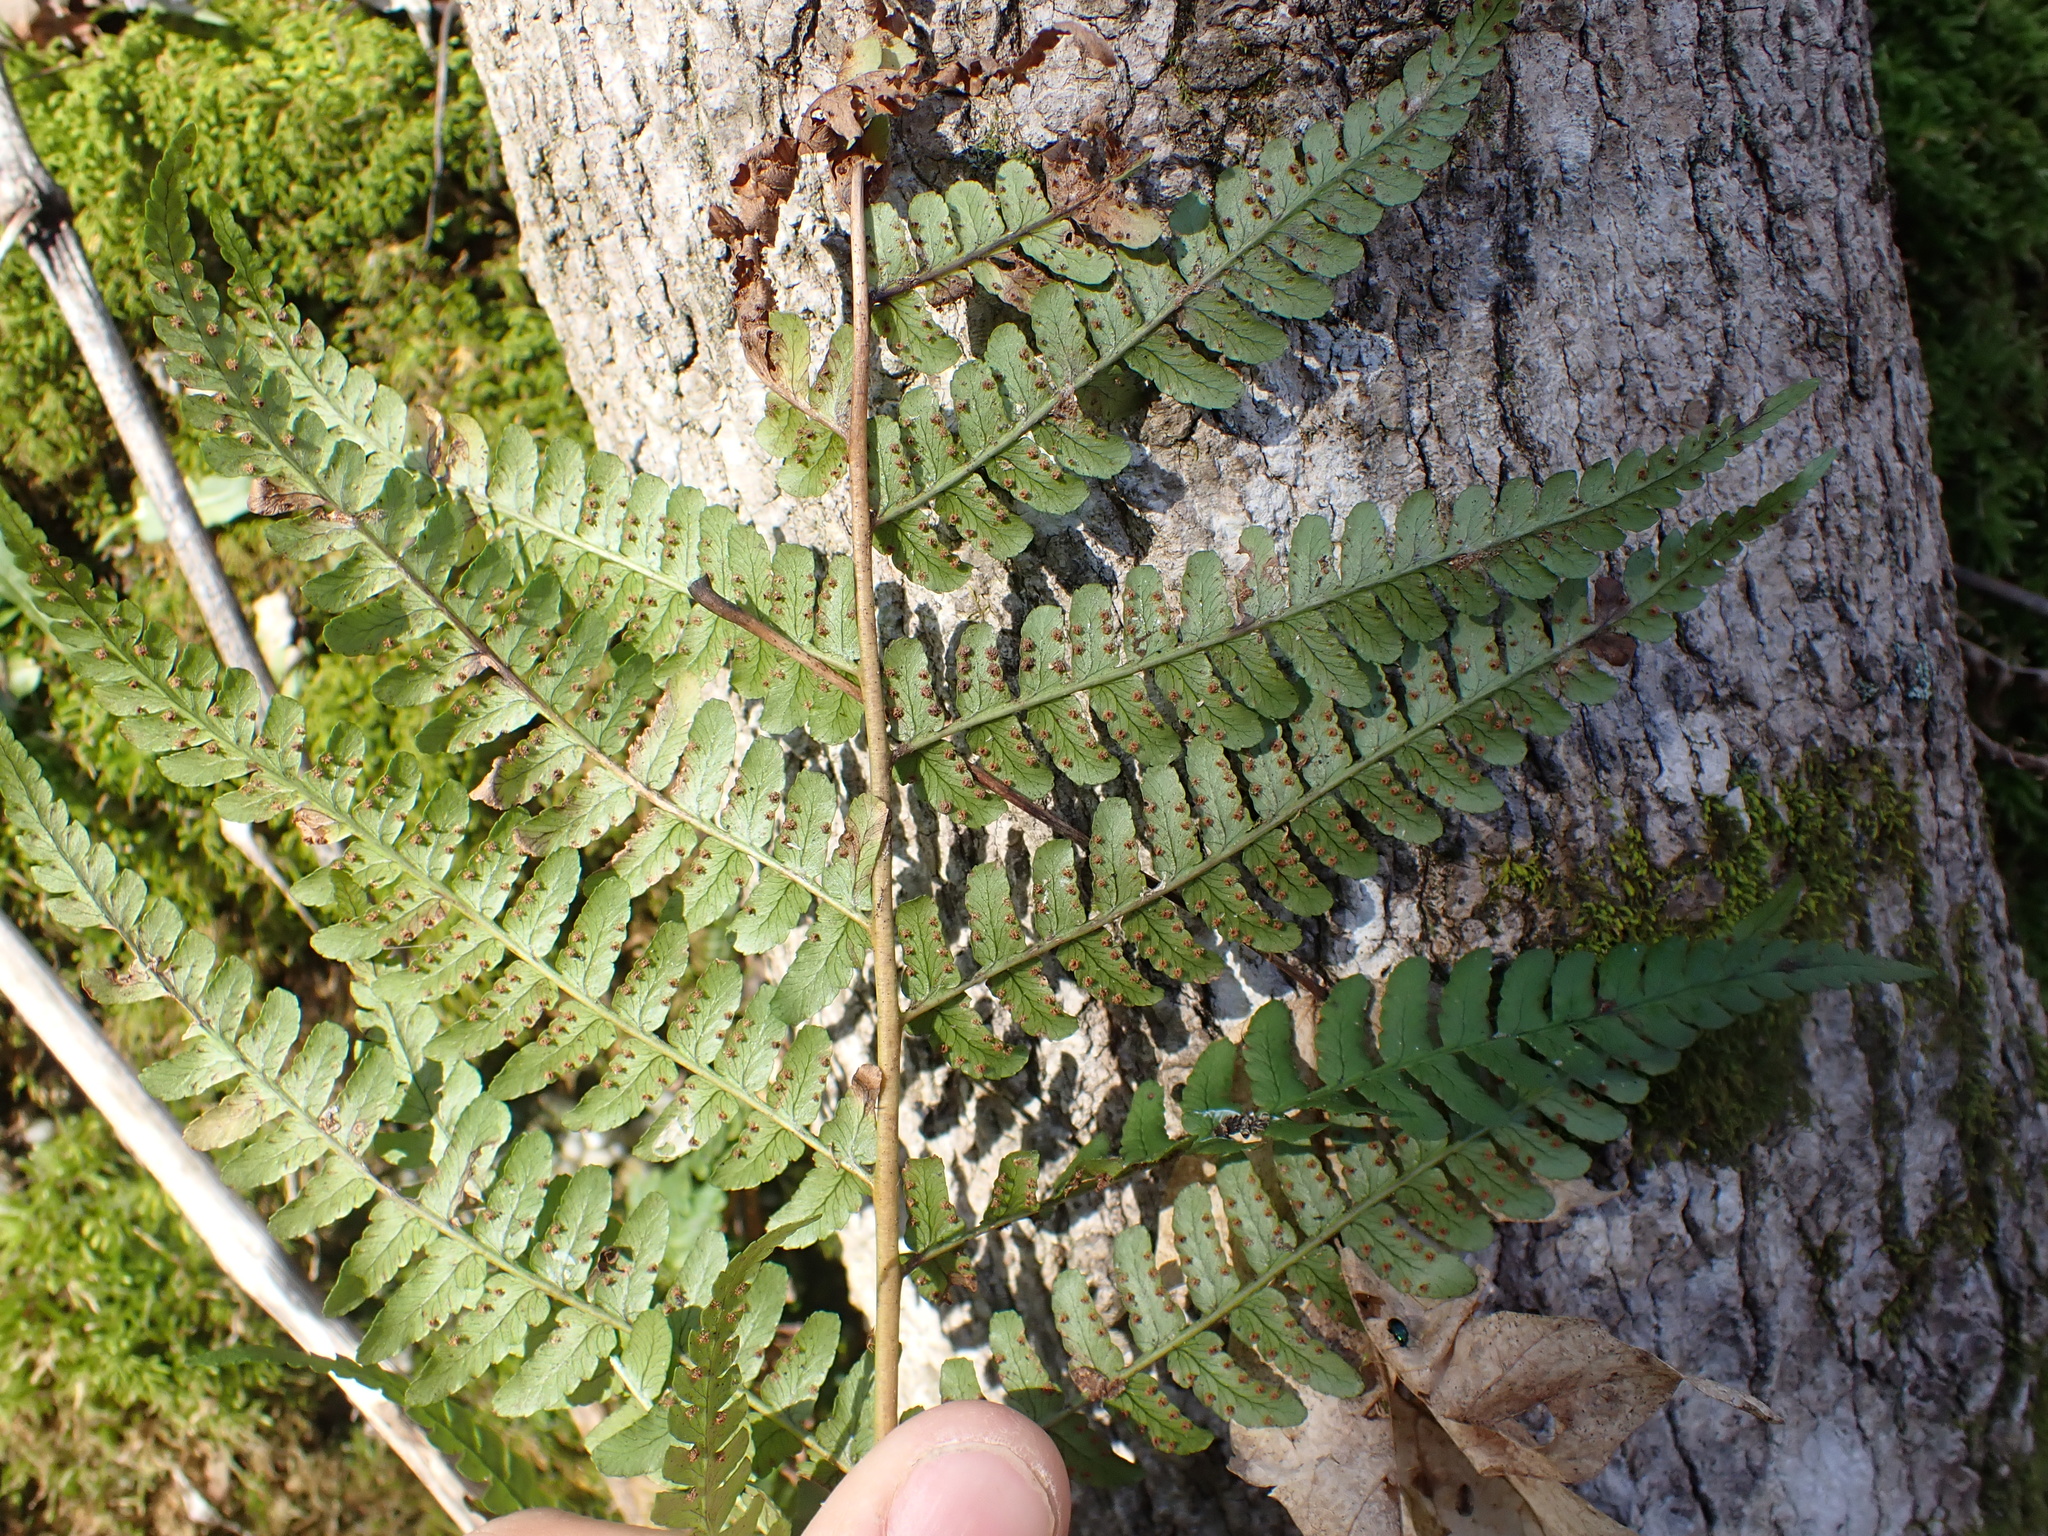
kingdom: Plantae
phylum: Tracheophyta
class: Polypodiopsida
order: Polypodiales
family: Dryopteridaceae
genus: Dryopteris
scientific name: Dryopteris marginalis
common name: Marginal wood fern
